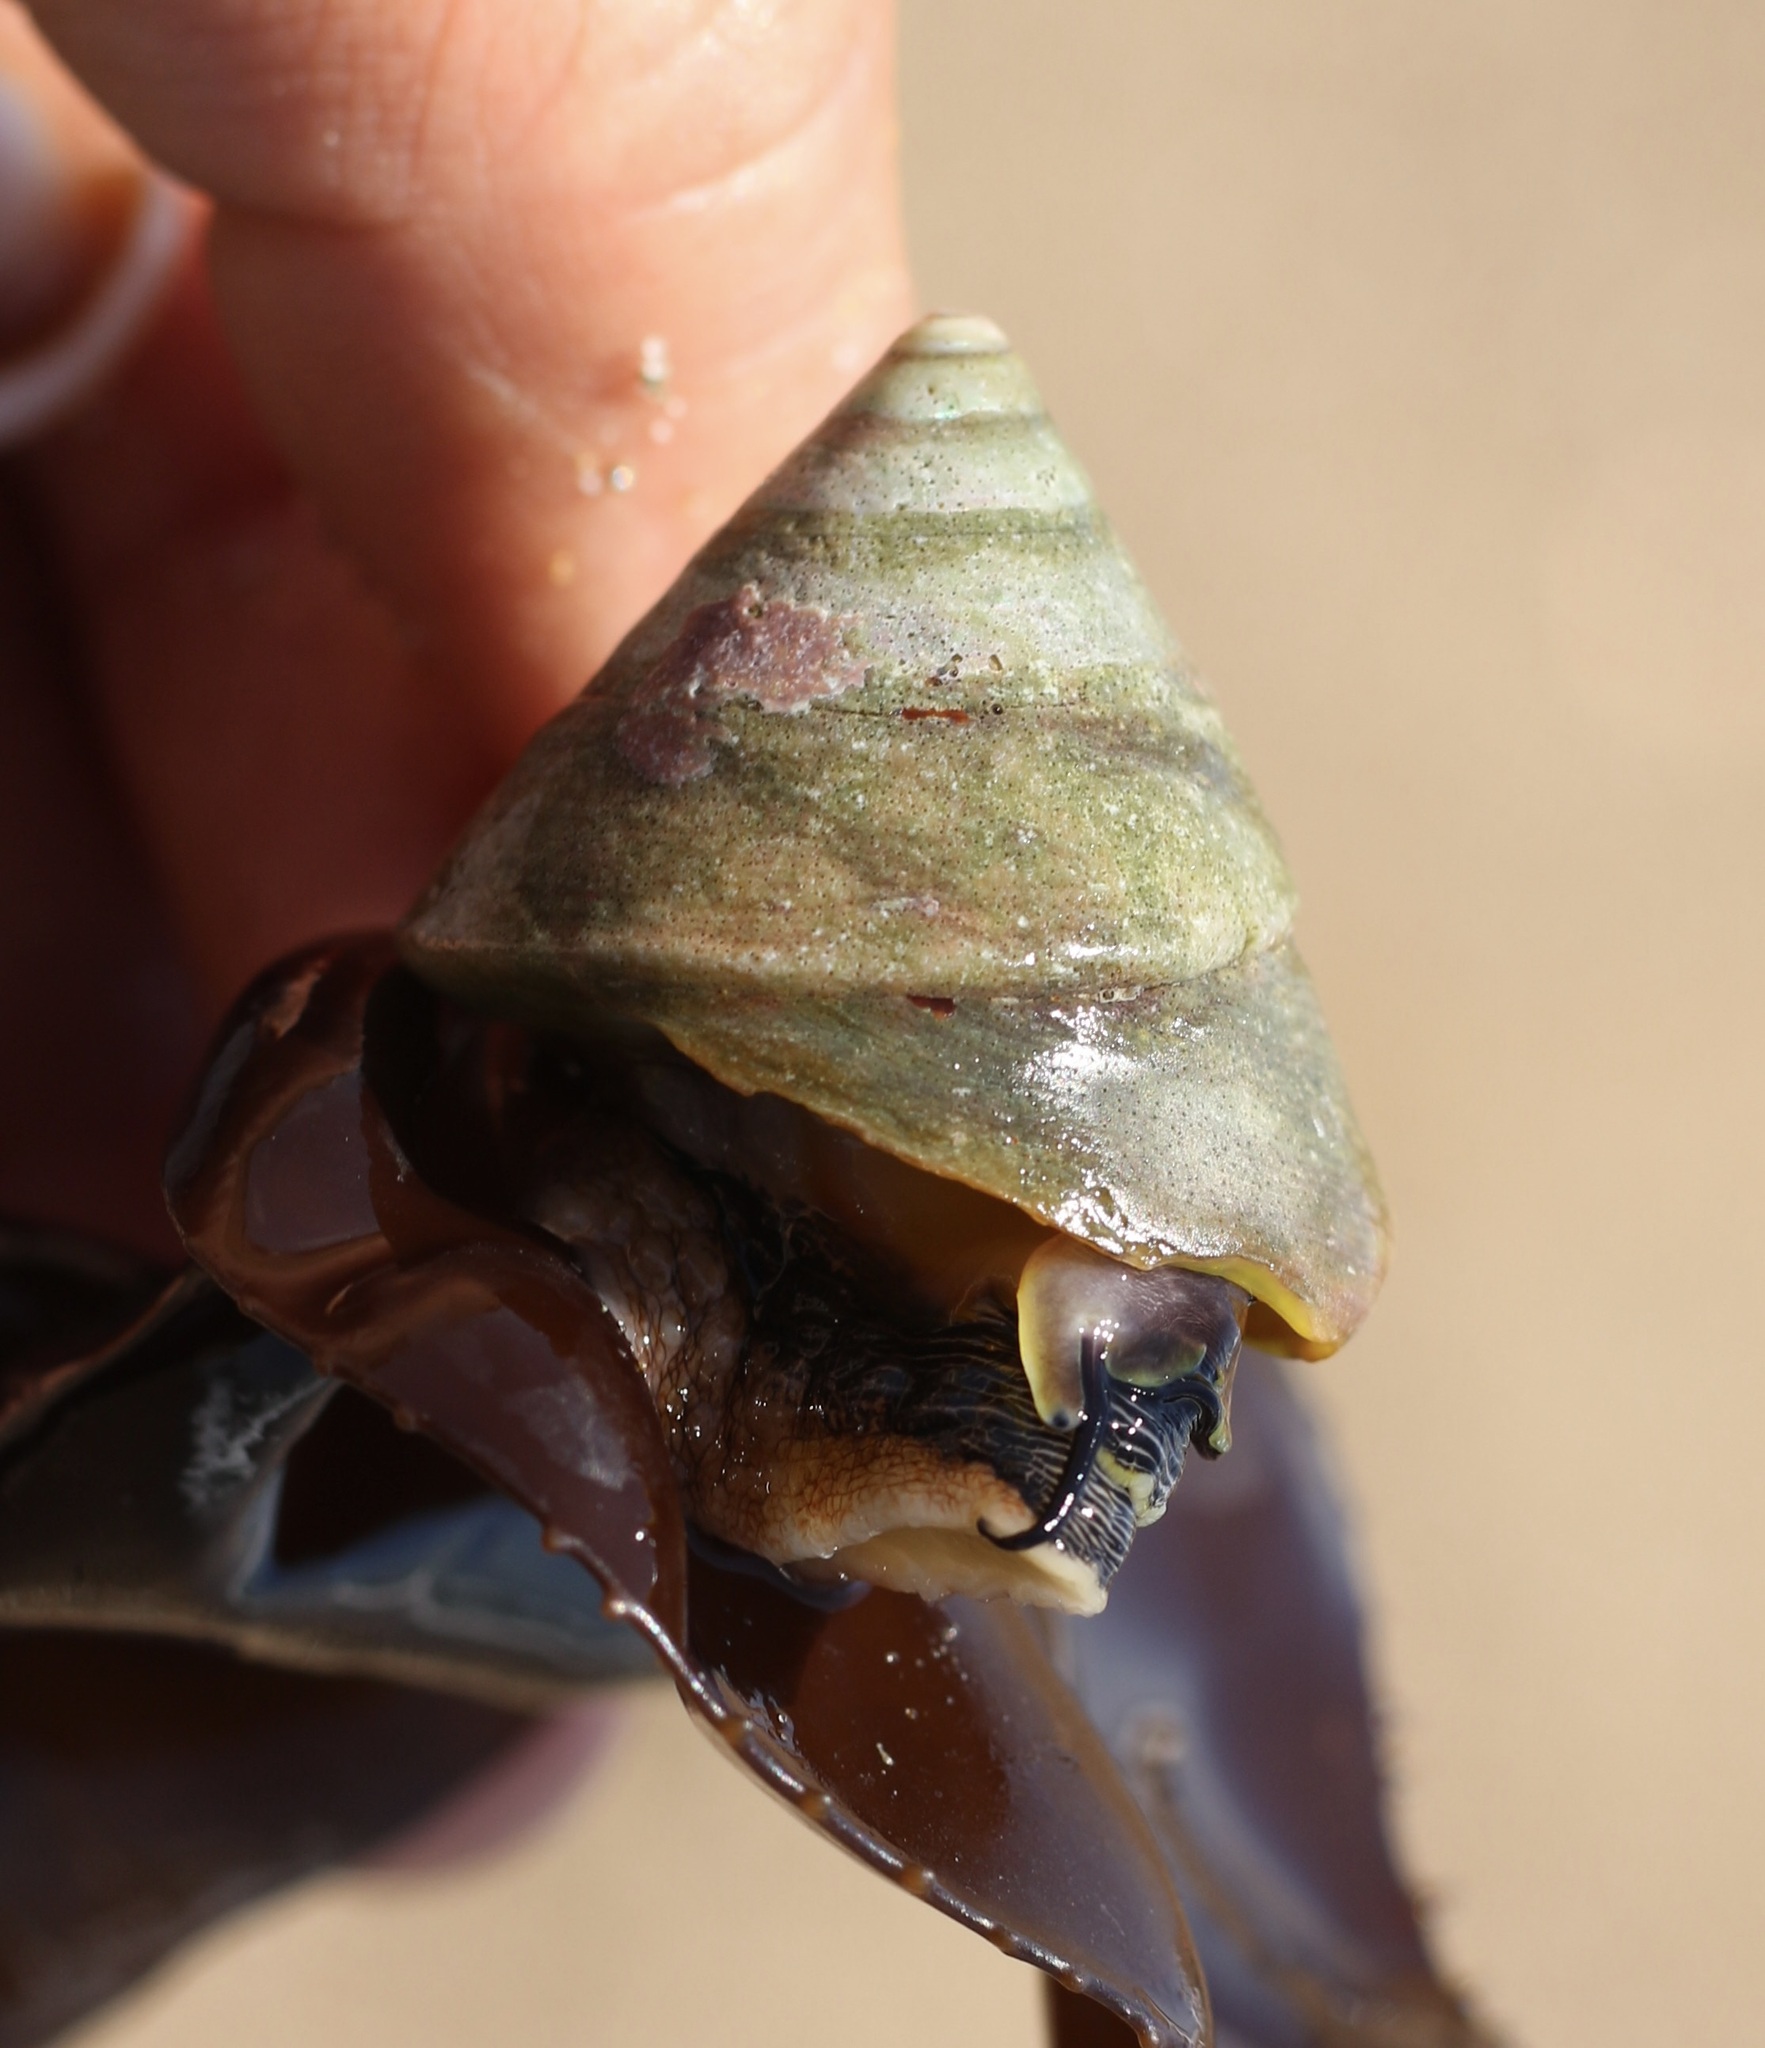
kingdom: Animalia
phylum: Mollusca
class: Gastropoda
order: Trochida
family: Tegulidae
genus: Tegula
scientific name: Tegula montereyi
